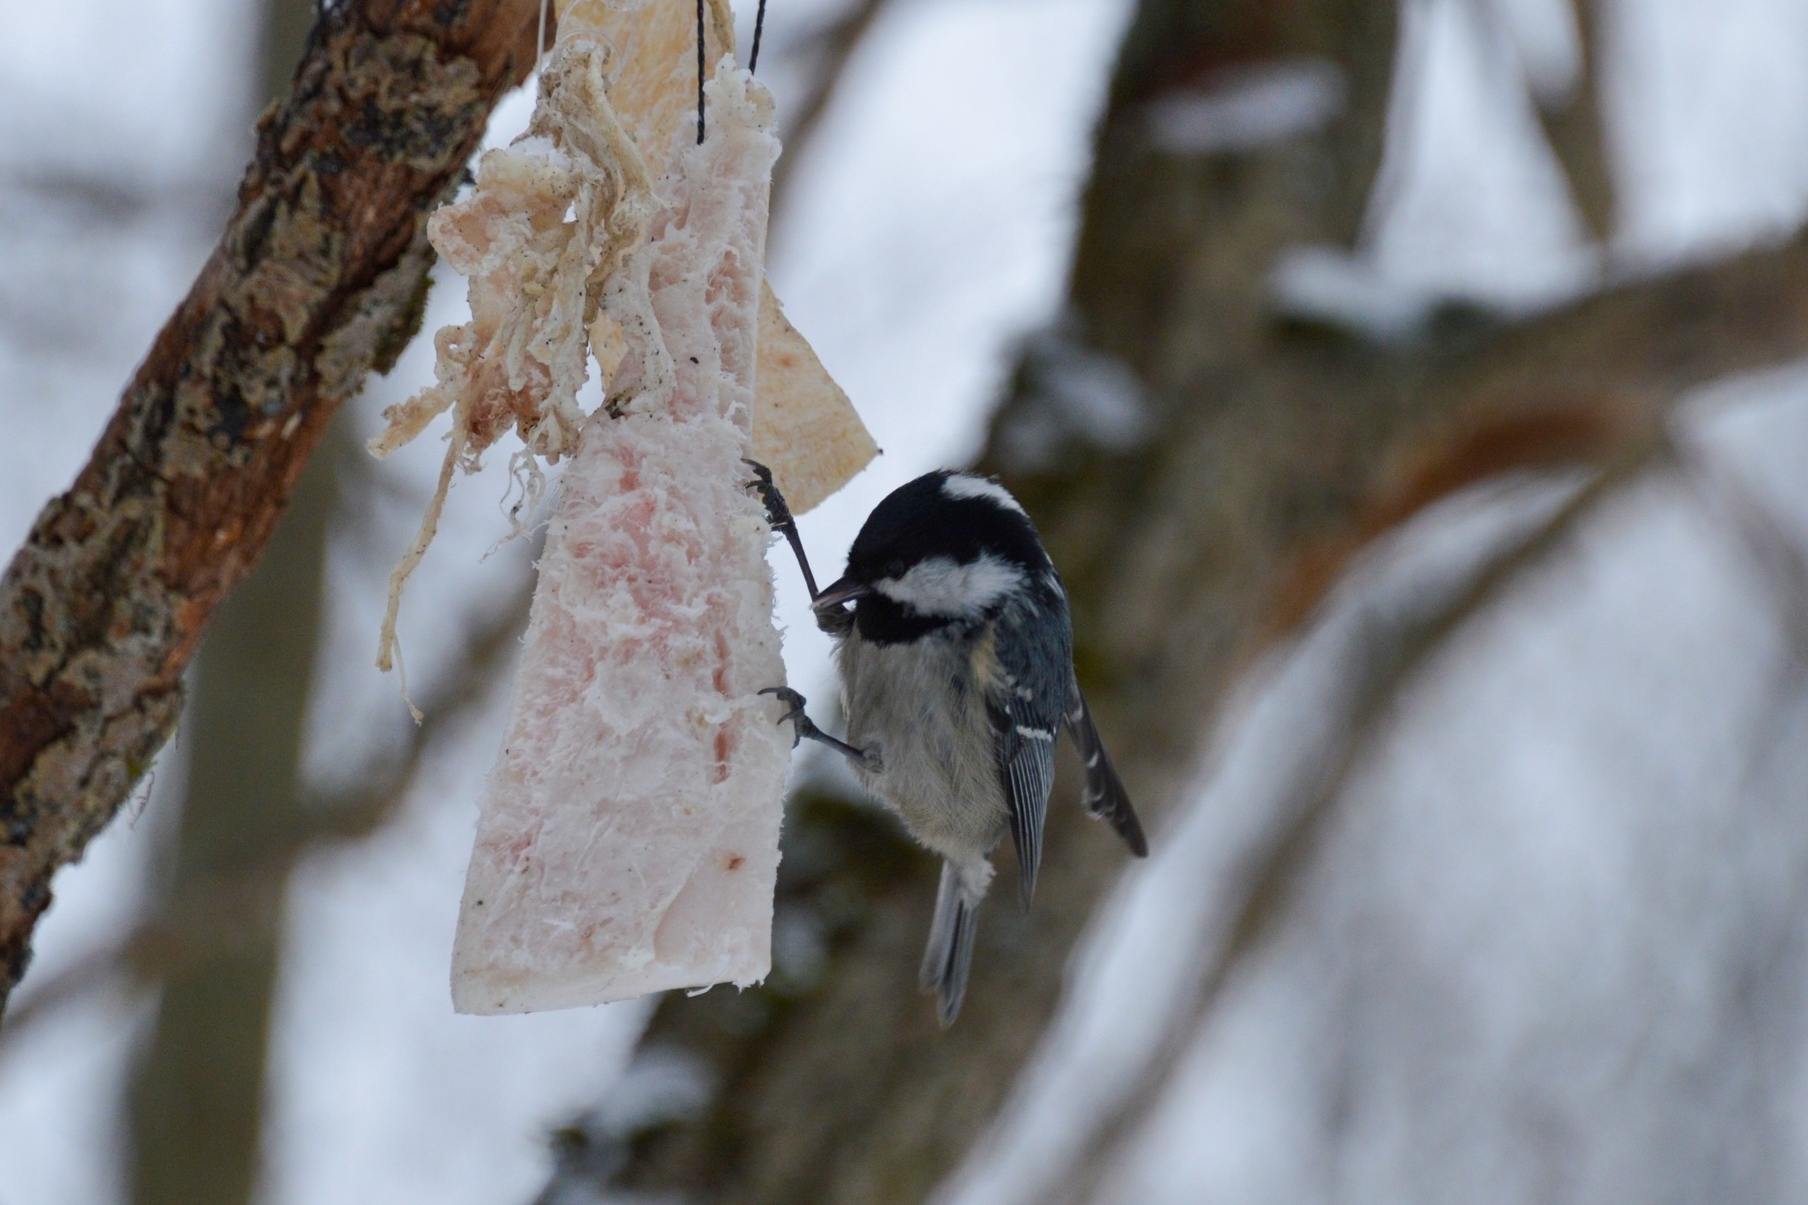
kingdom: Animalia
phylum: Chordata
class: Aves
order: Passeriformes
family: Paridae
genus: Periparus
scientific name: Periparus ater
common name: Coal tit
